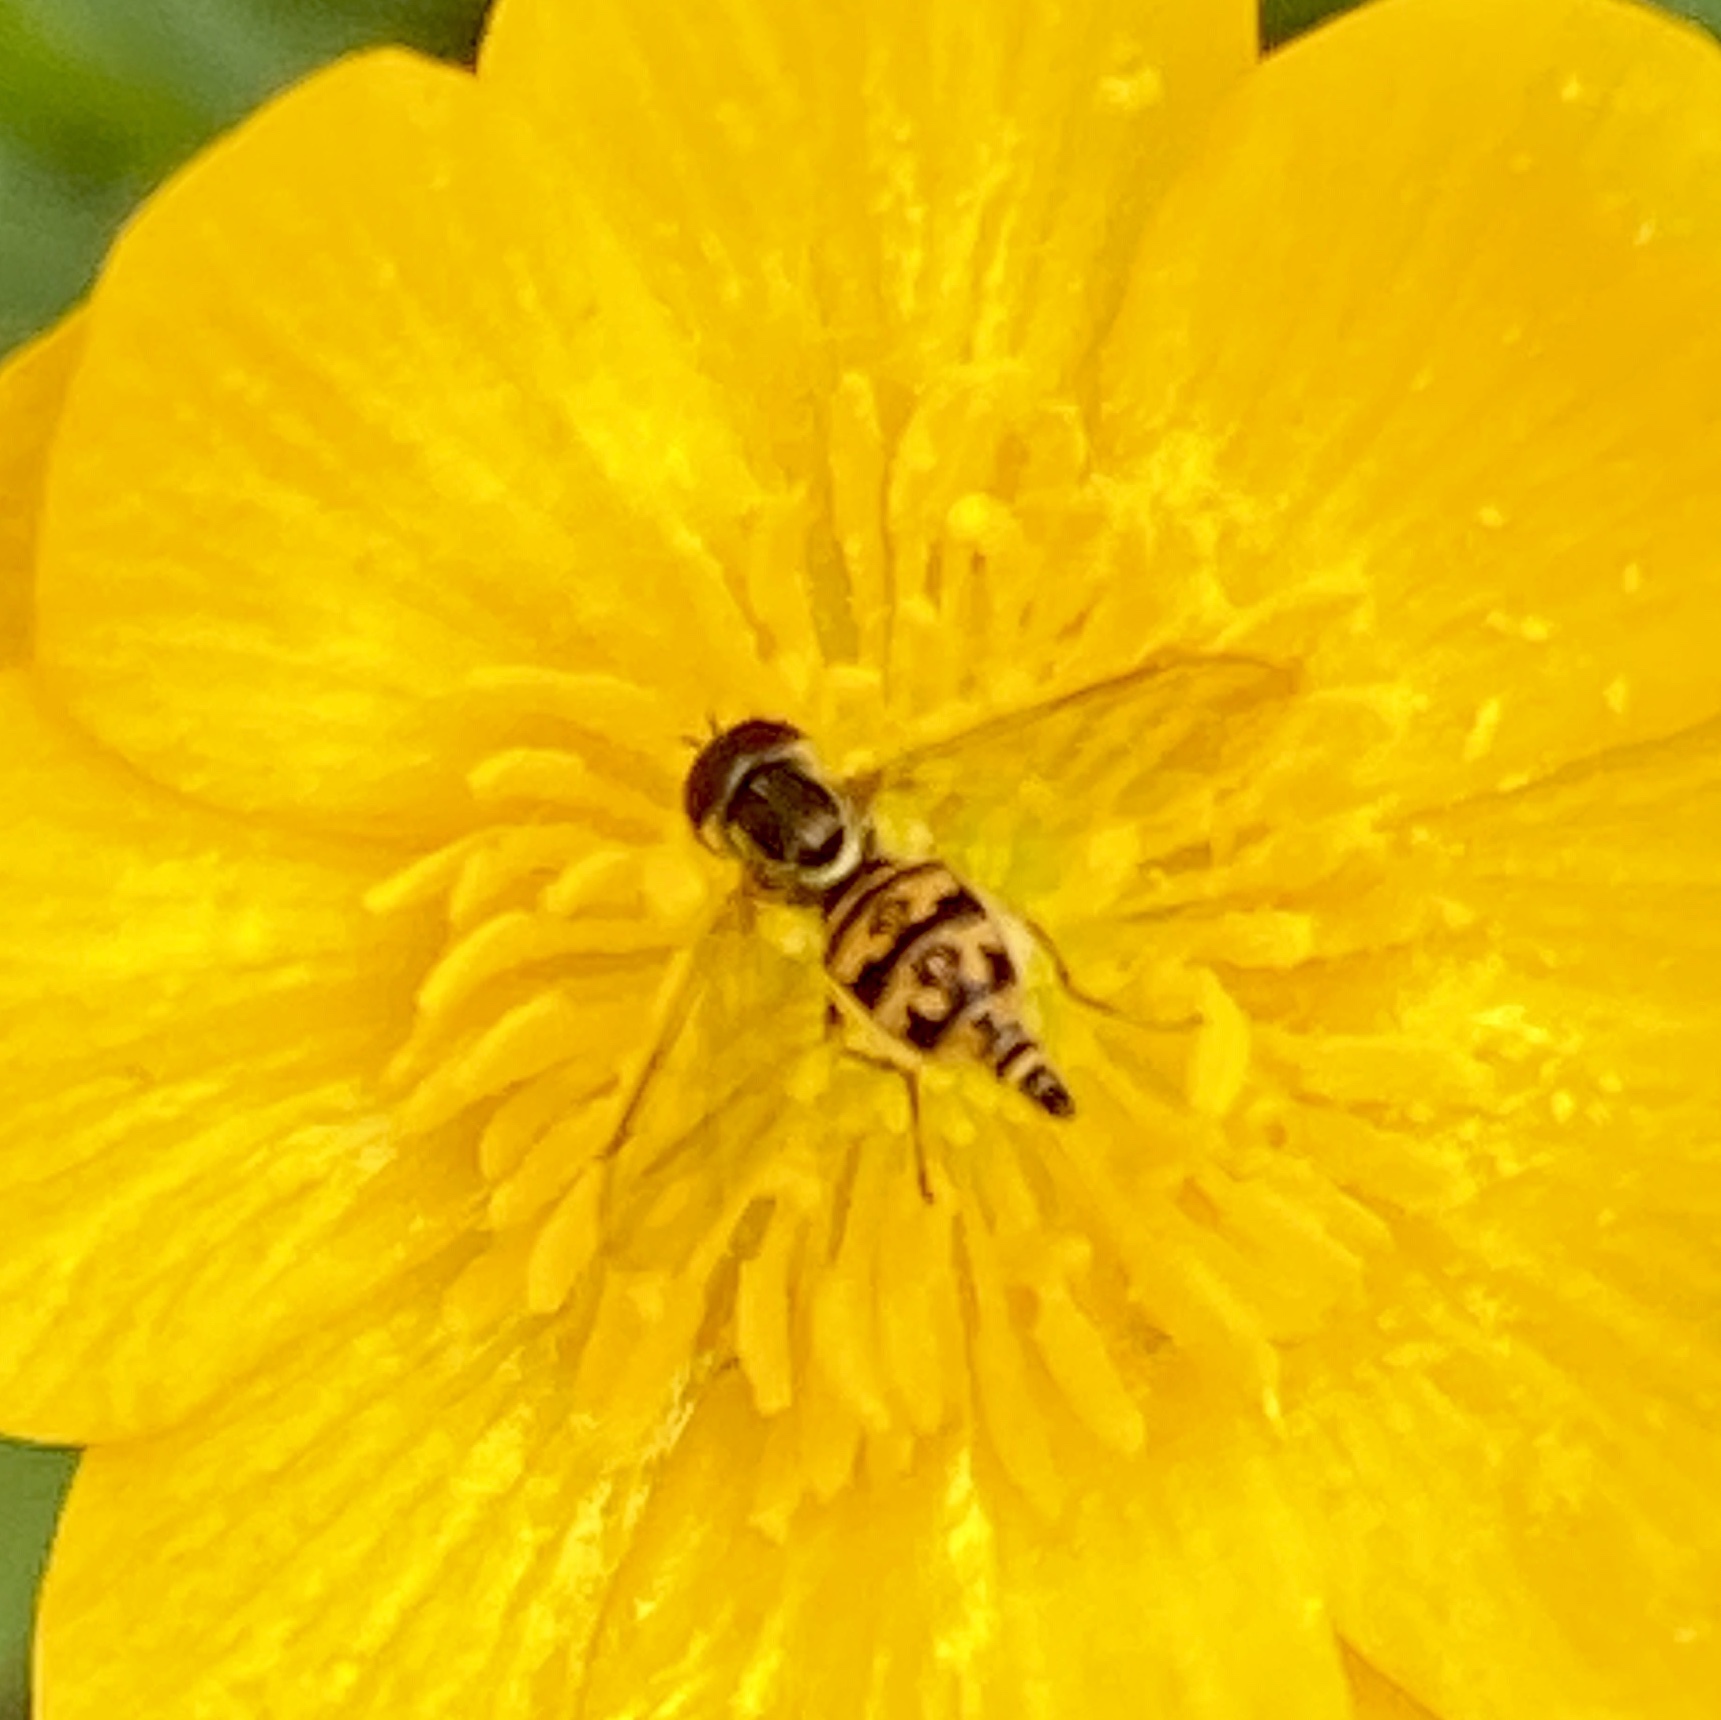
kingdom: Animalia
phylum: Arthropoda
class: Insecta
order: Diptera
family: Syrphidae
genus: Toxomerus
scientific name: Toxomerus geminatus
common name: Eastern calligrapher
